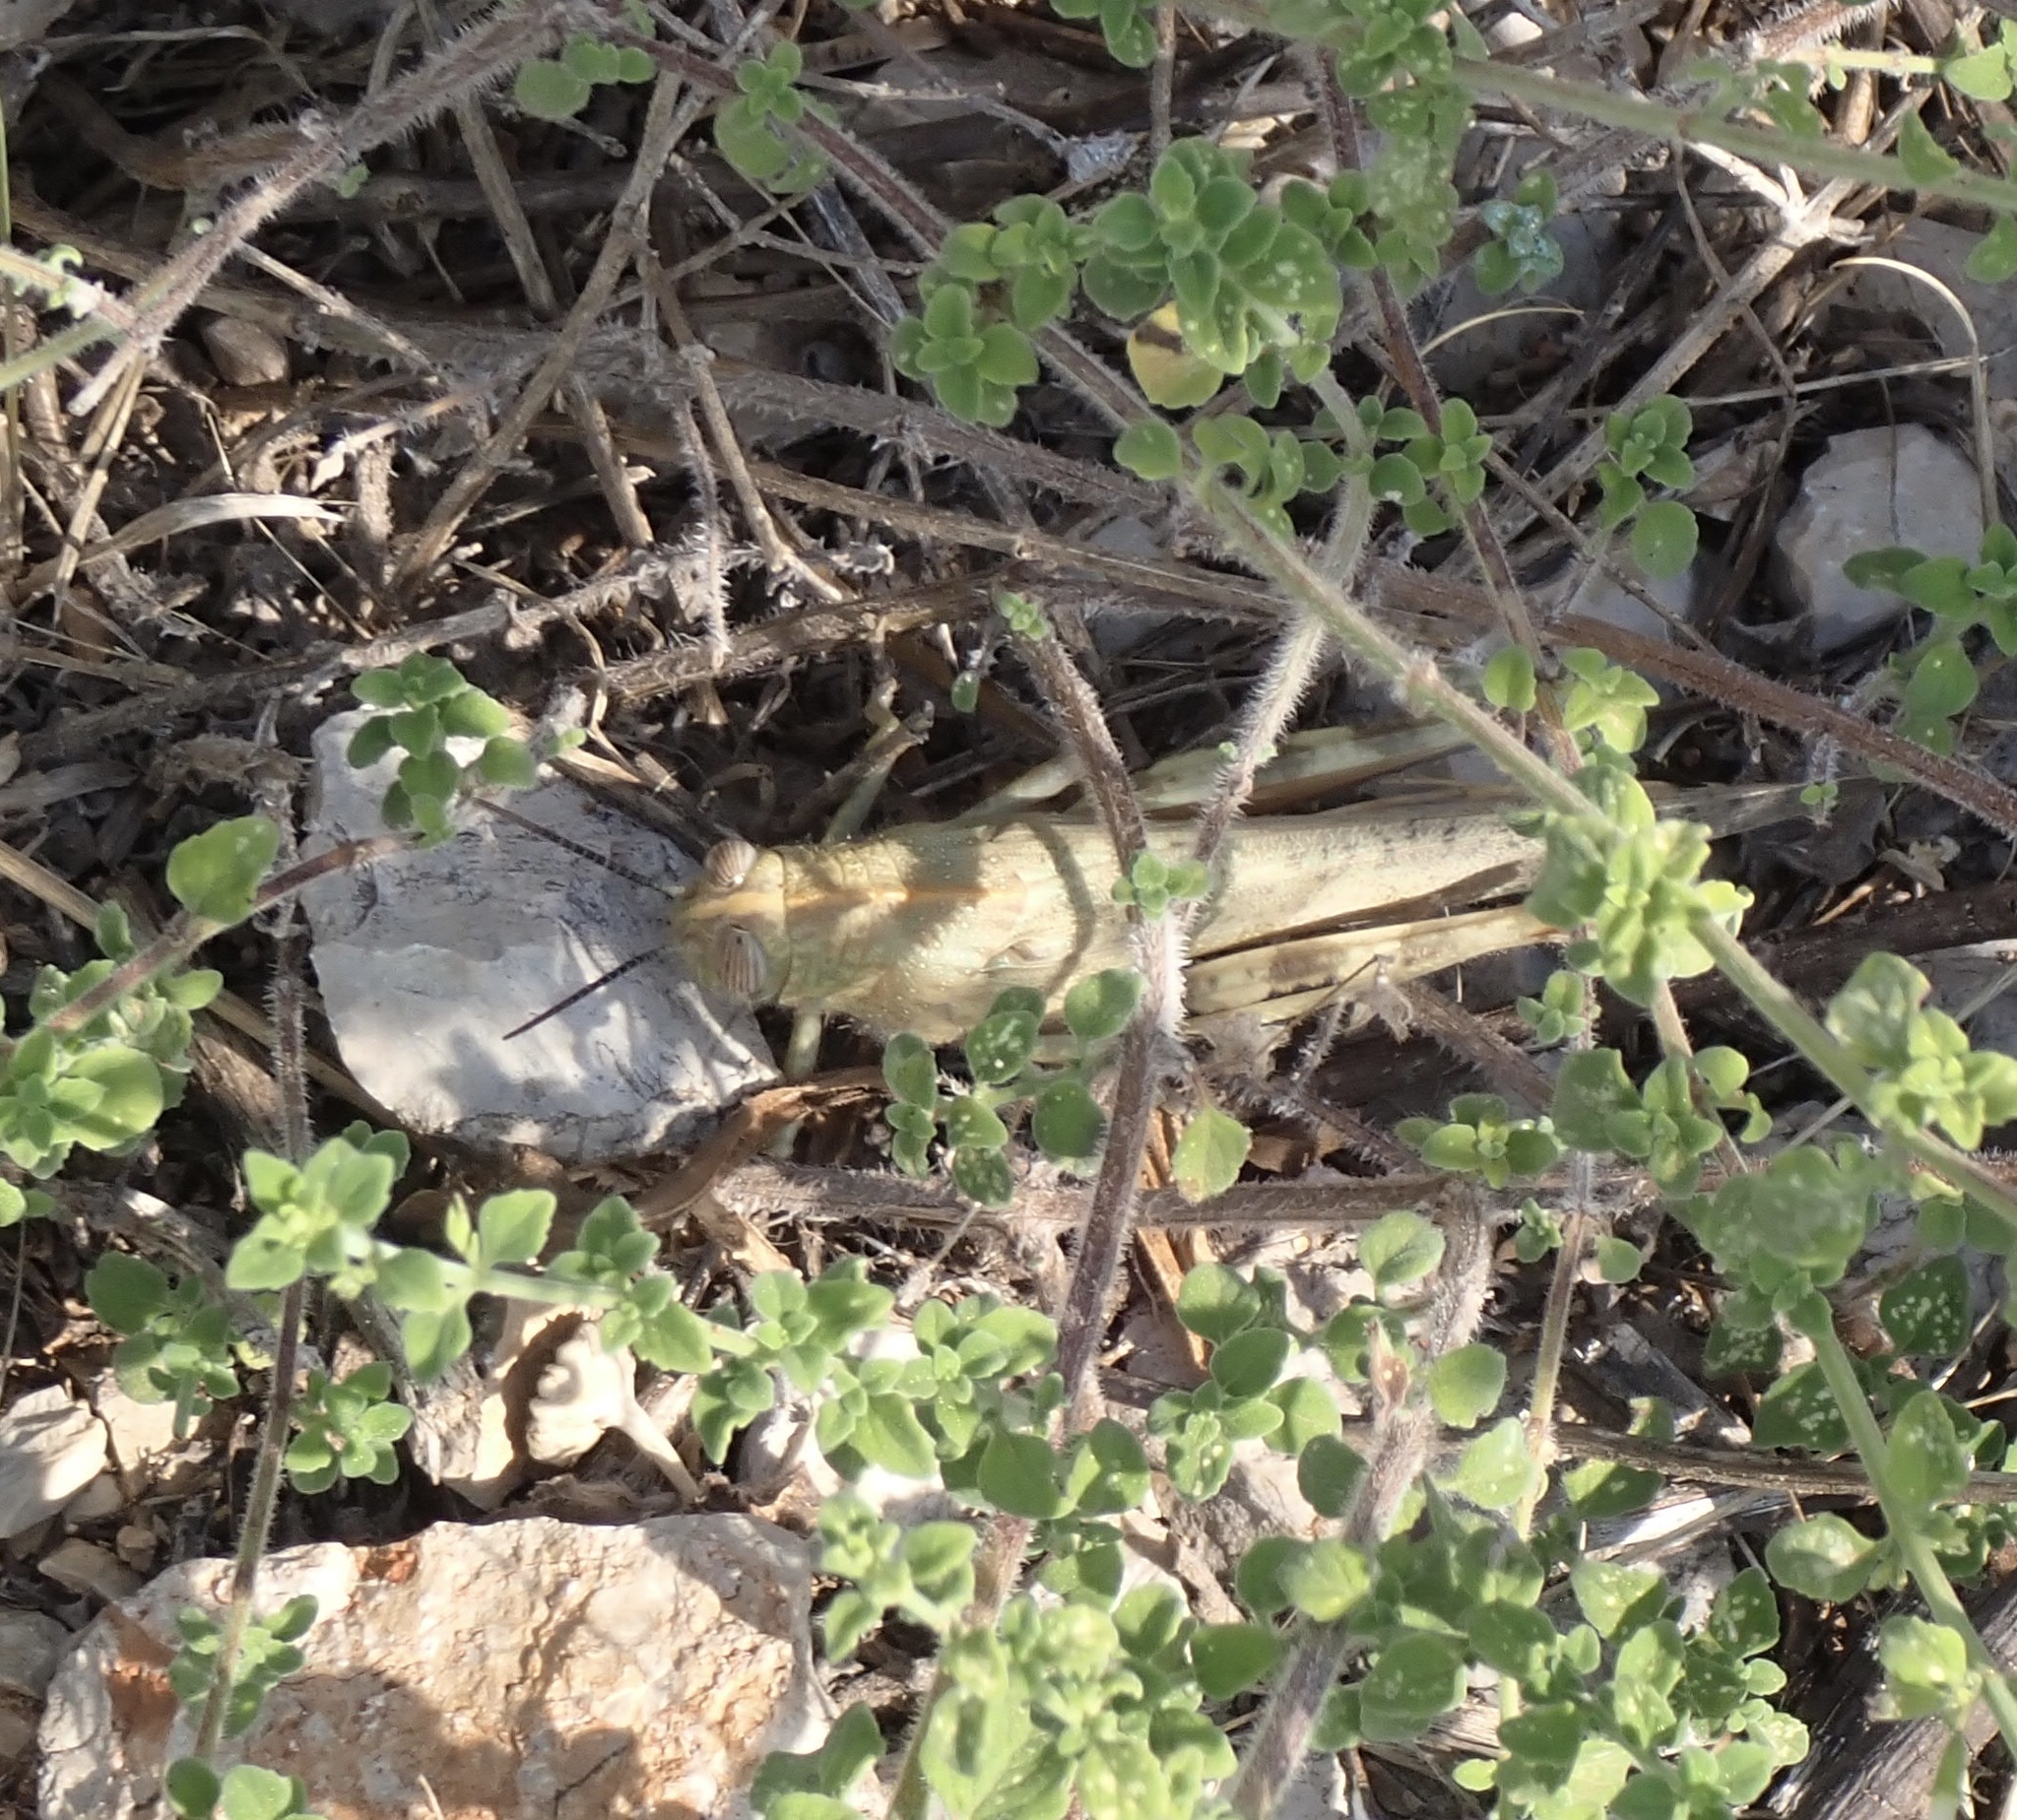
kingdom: Animalia
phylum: Arthropoda
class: Insecta
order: Orthoptera
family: Acrididae
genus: Anacridium
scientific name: Anacridium aegyptium
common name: Egyptian grasshopper
